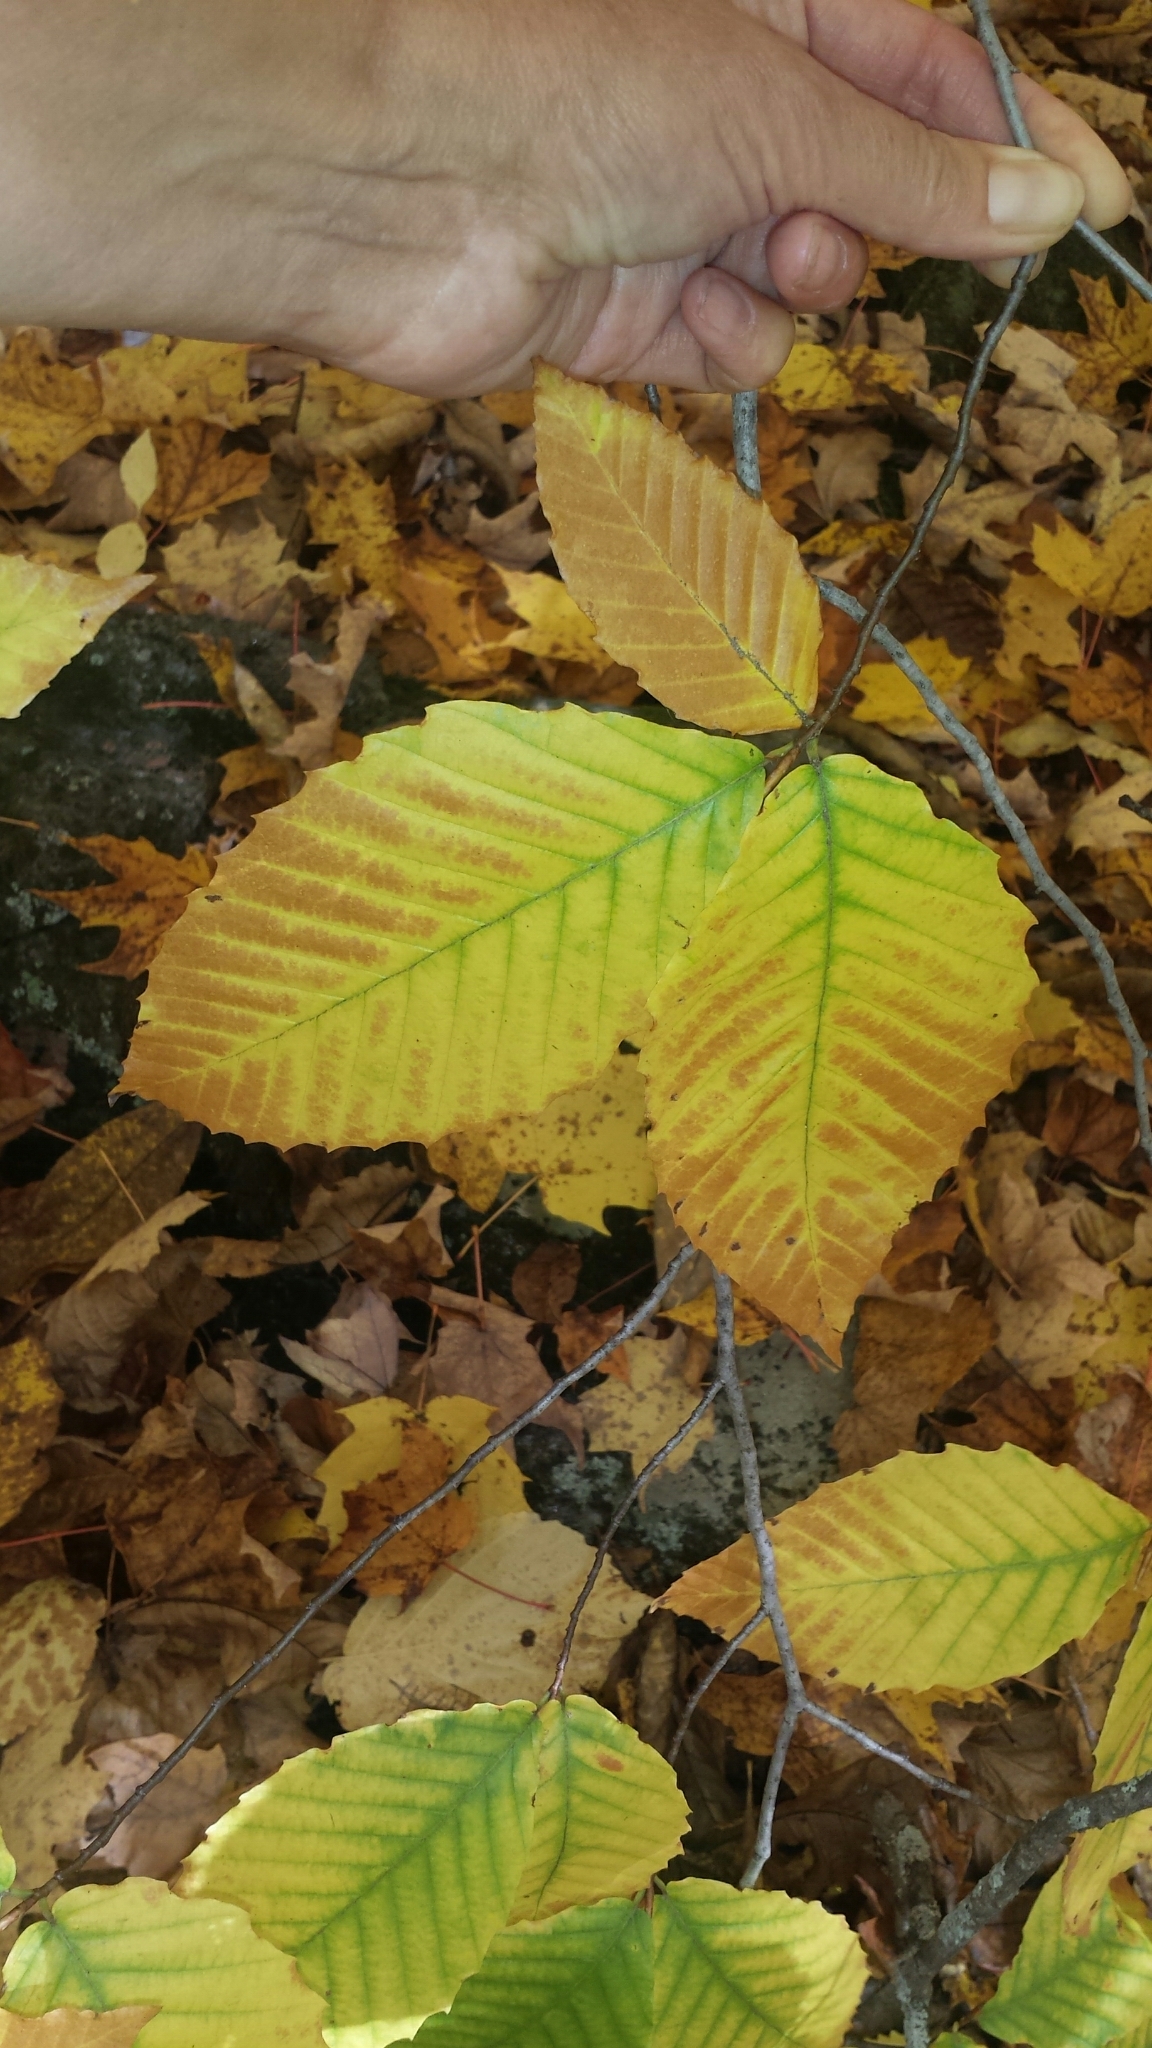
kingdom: Plantae
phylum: Tracheophyta
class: Magnoliopsida
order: Fagales
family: Fagaceae
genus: Fagus
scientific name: Fagus grandifolia
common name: American beech
